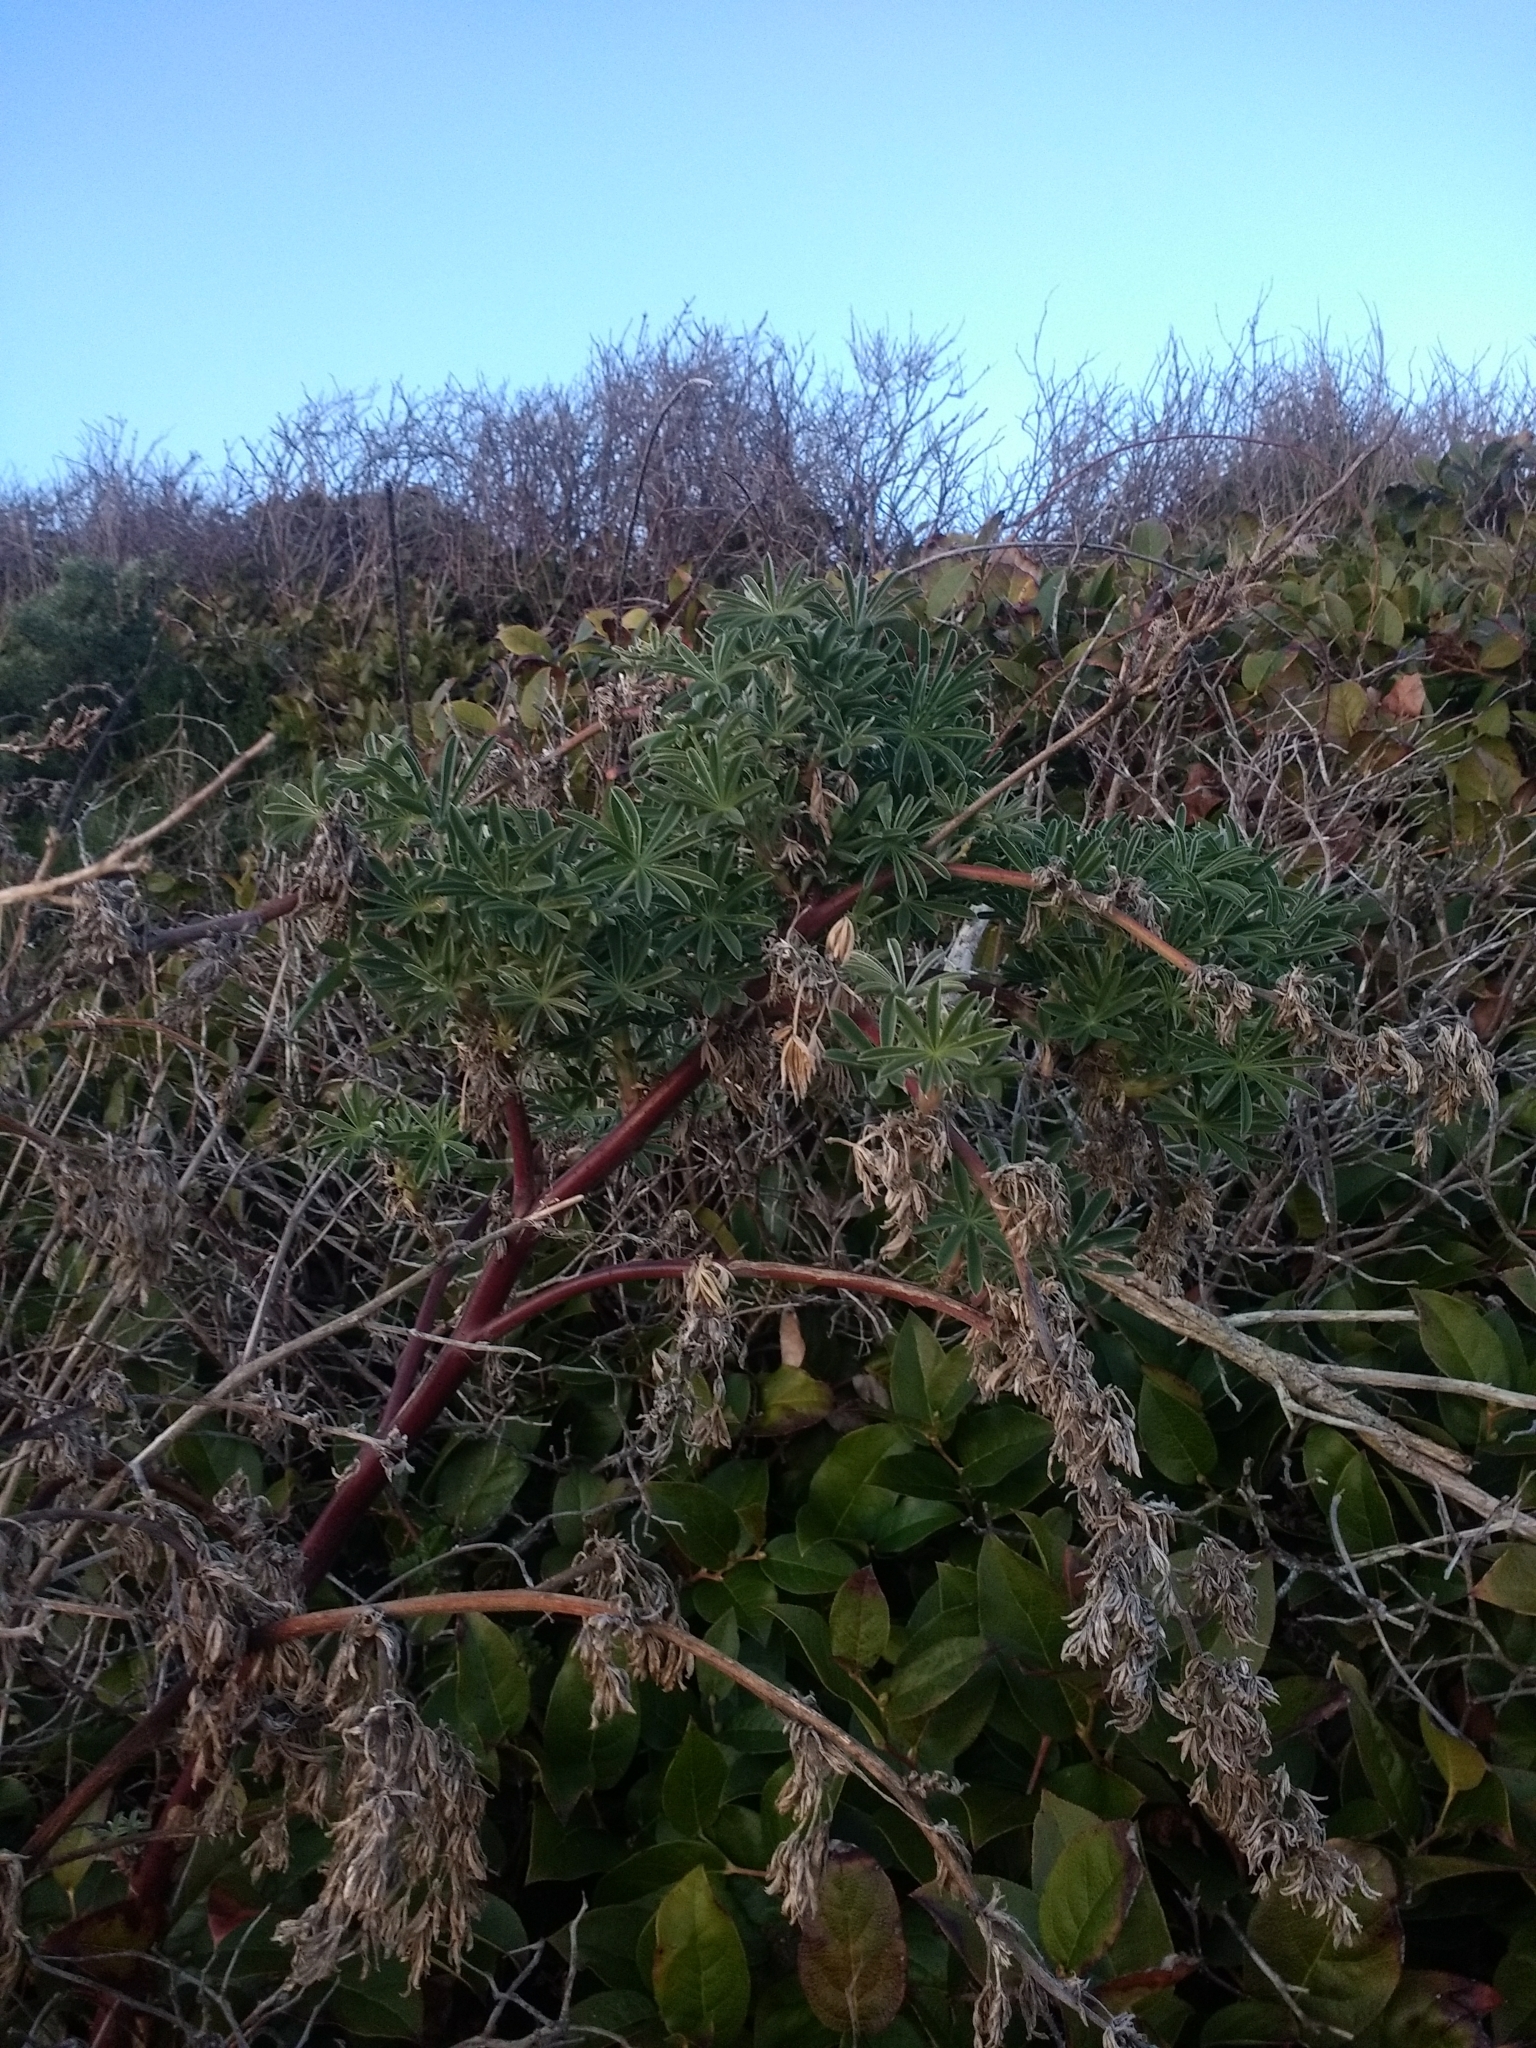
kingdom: Plantae
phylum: Tracheophyta
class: Magnoliopsida
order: Fabales
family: Fabaceae
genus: Lupinus
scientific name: Lupinus arboreus
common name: Yellow bush lupine
